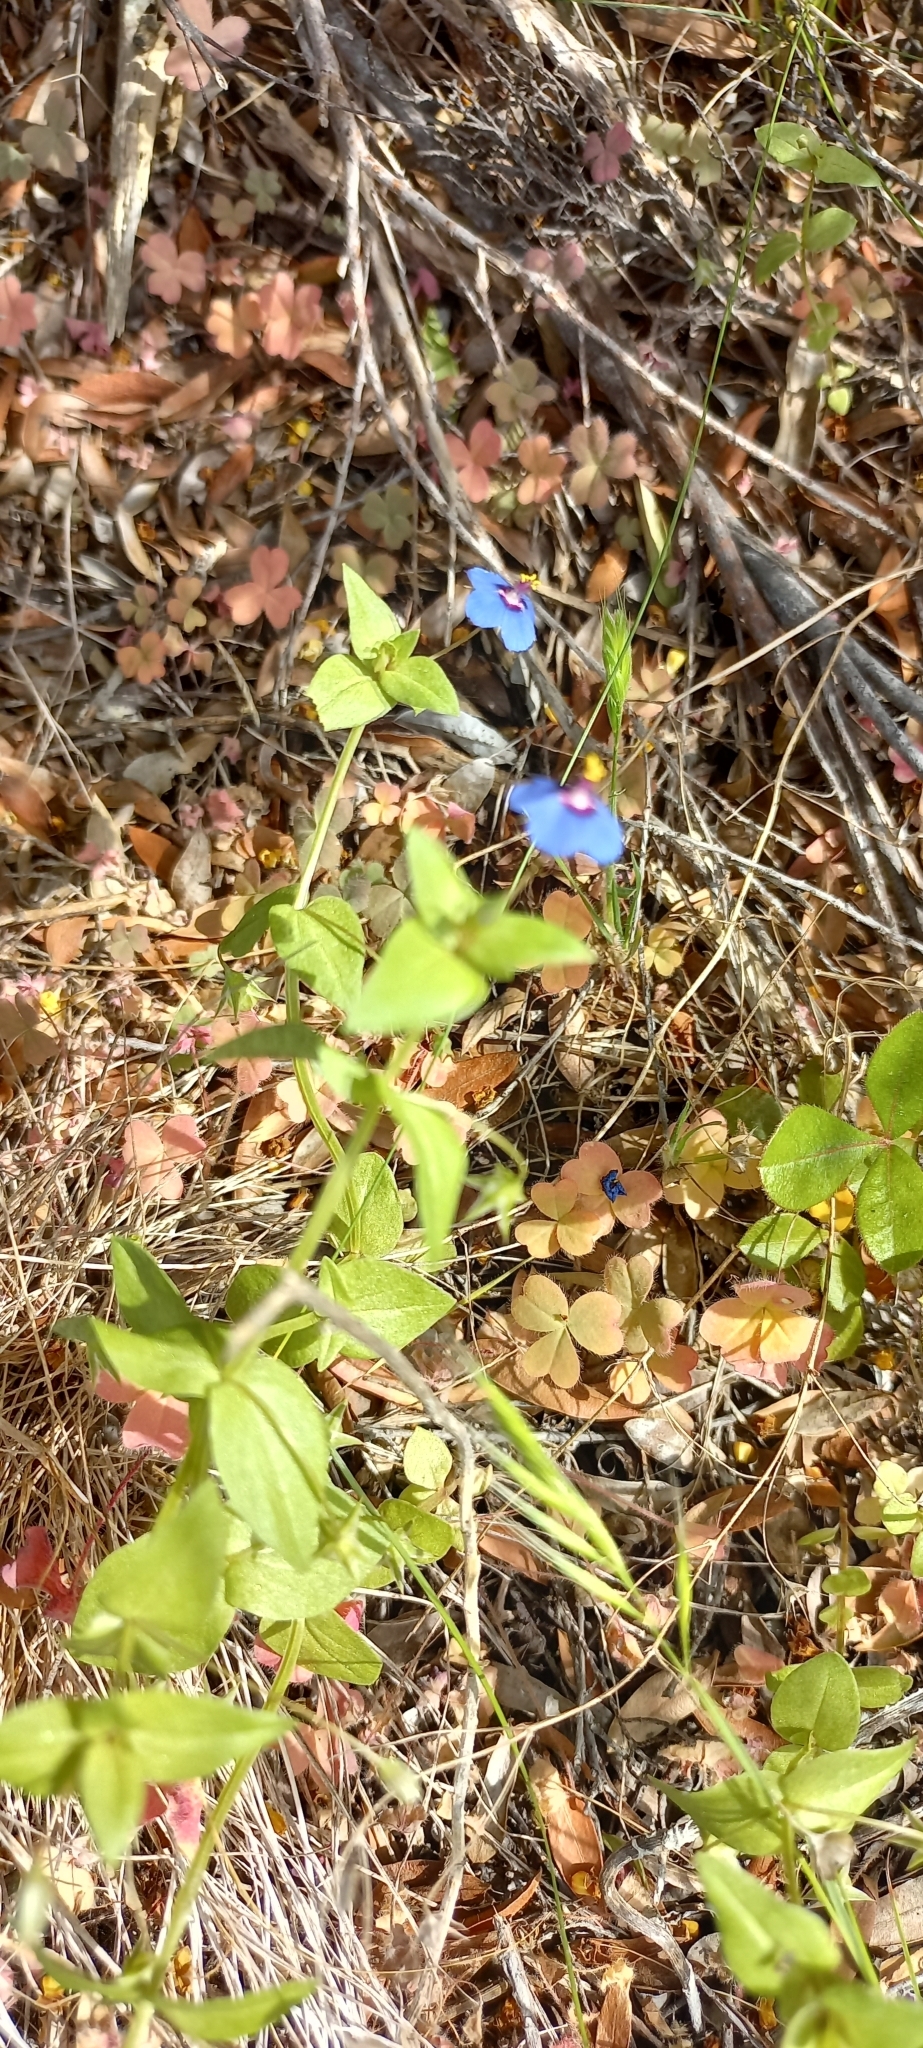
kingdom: Plantae
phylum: Tracheophyta
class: Magnoliopsida
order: Ericales
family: Primulaceae
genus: Lysimachia
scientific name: Lysimachia foemina
